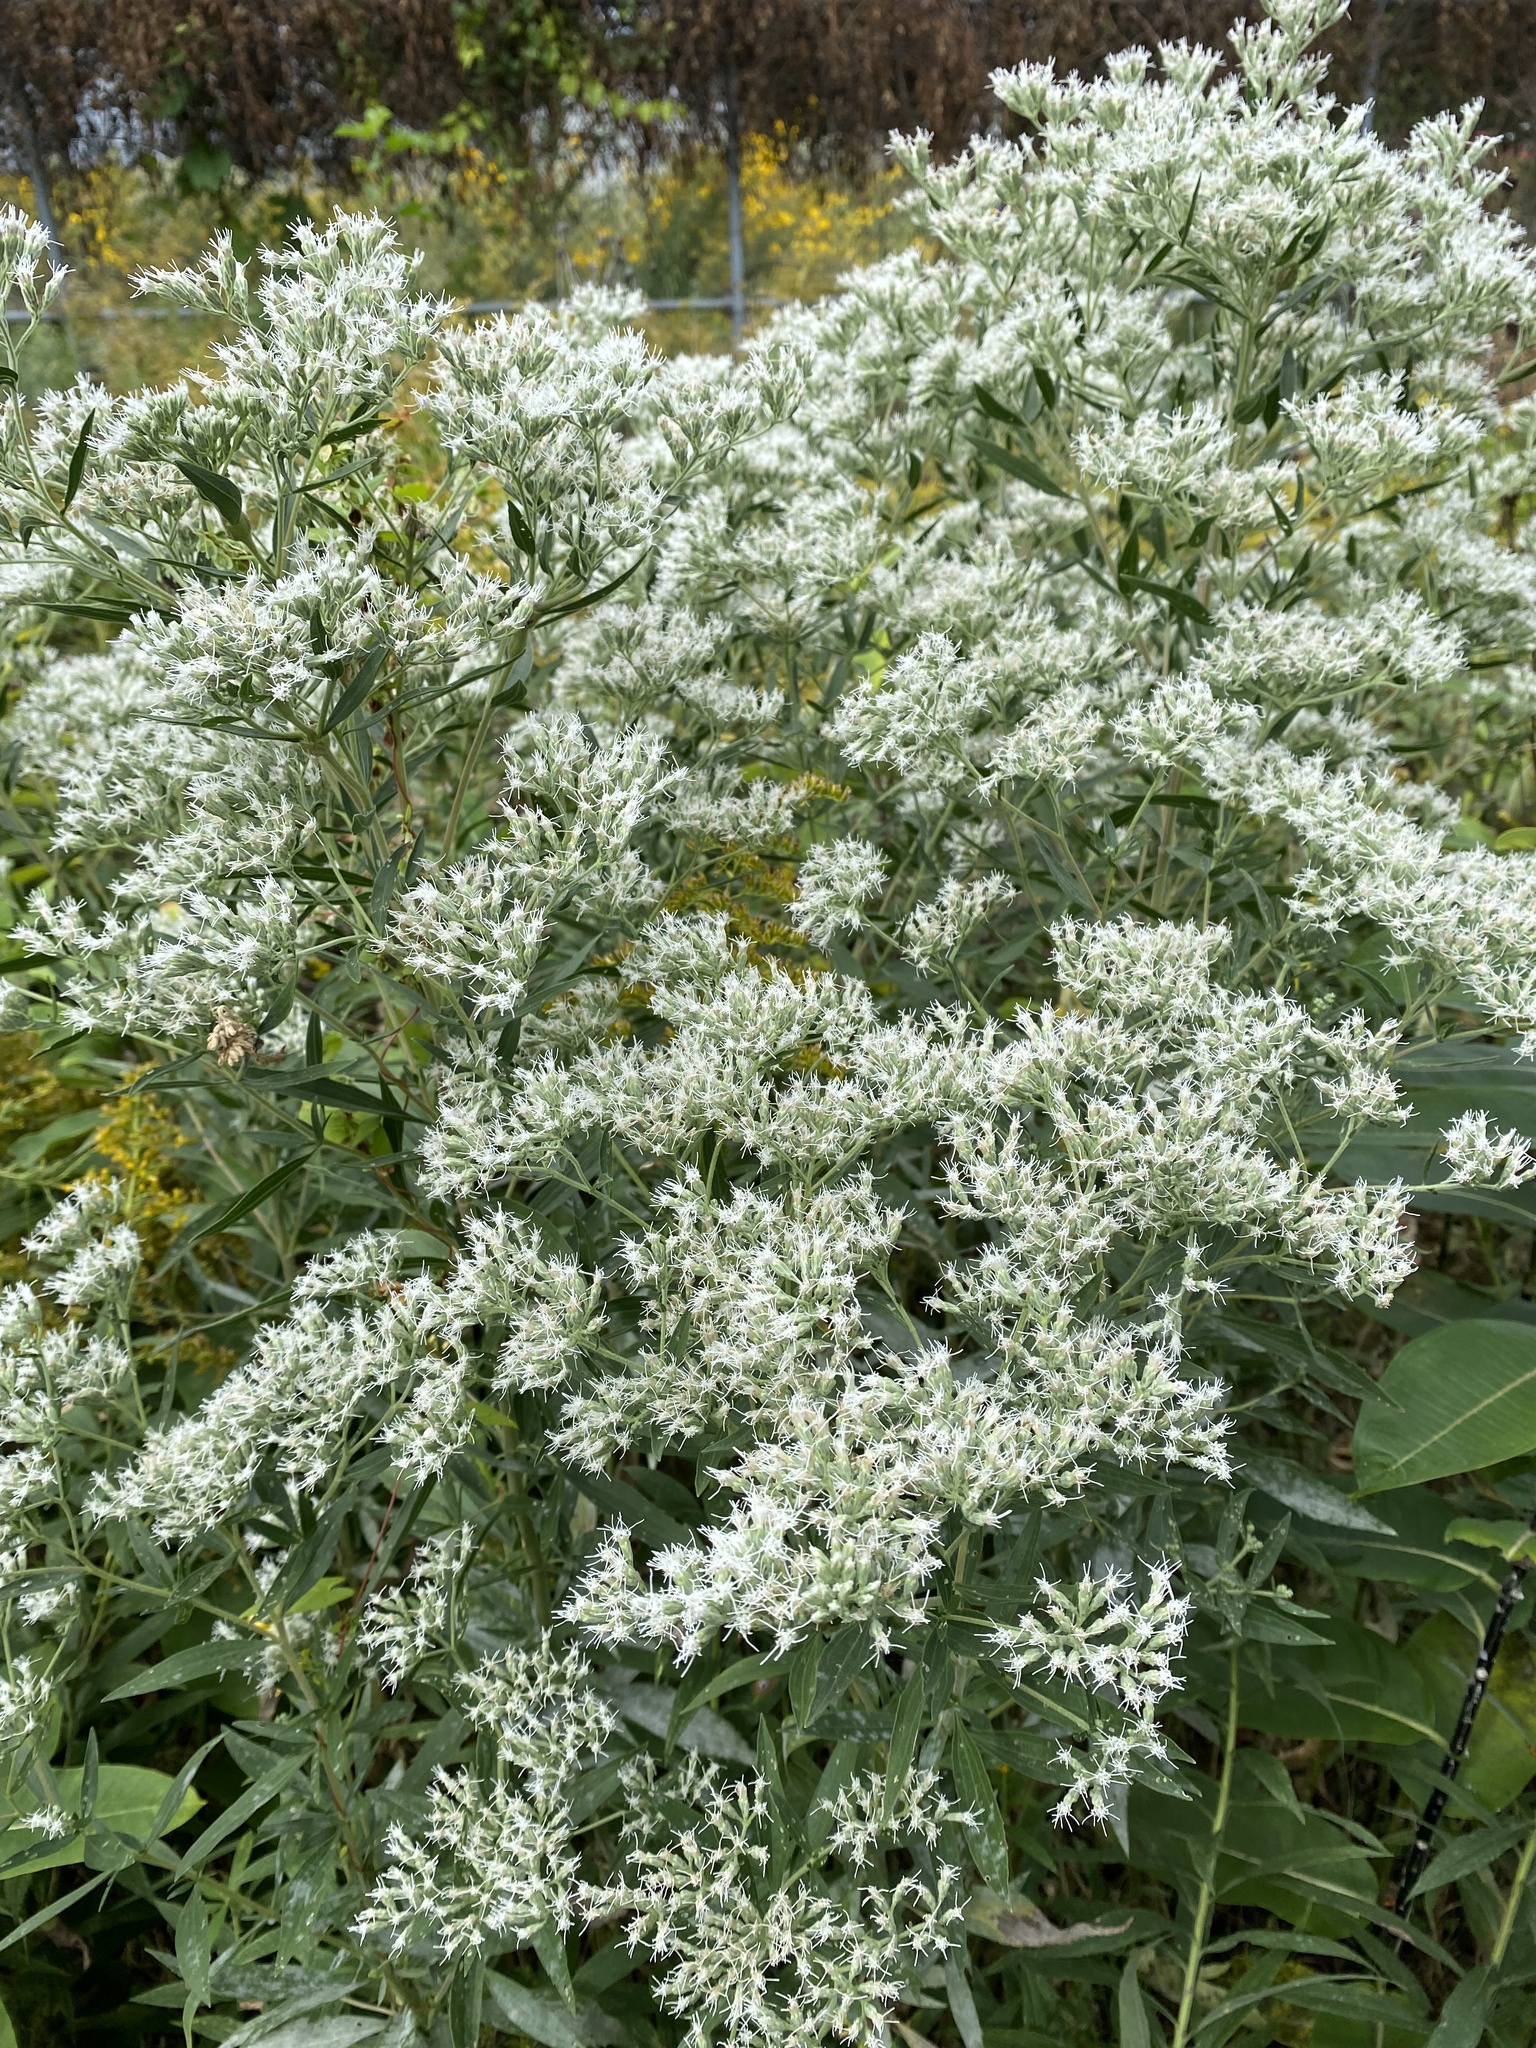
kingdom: Plantae
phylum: Tracheophyta
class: Magnoliopsida
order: Asterales
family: Asteraceae
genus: Eupatorium
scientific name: Eupatorium altissimum
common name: Tall thoroughwort
